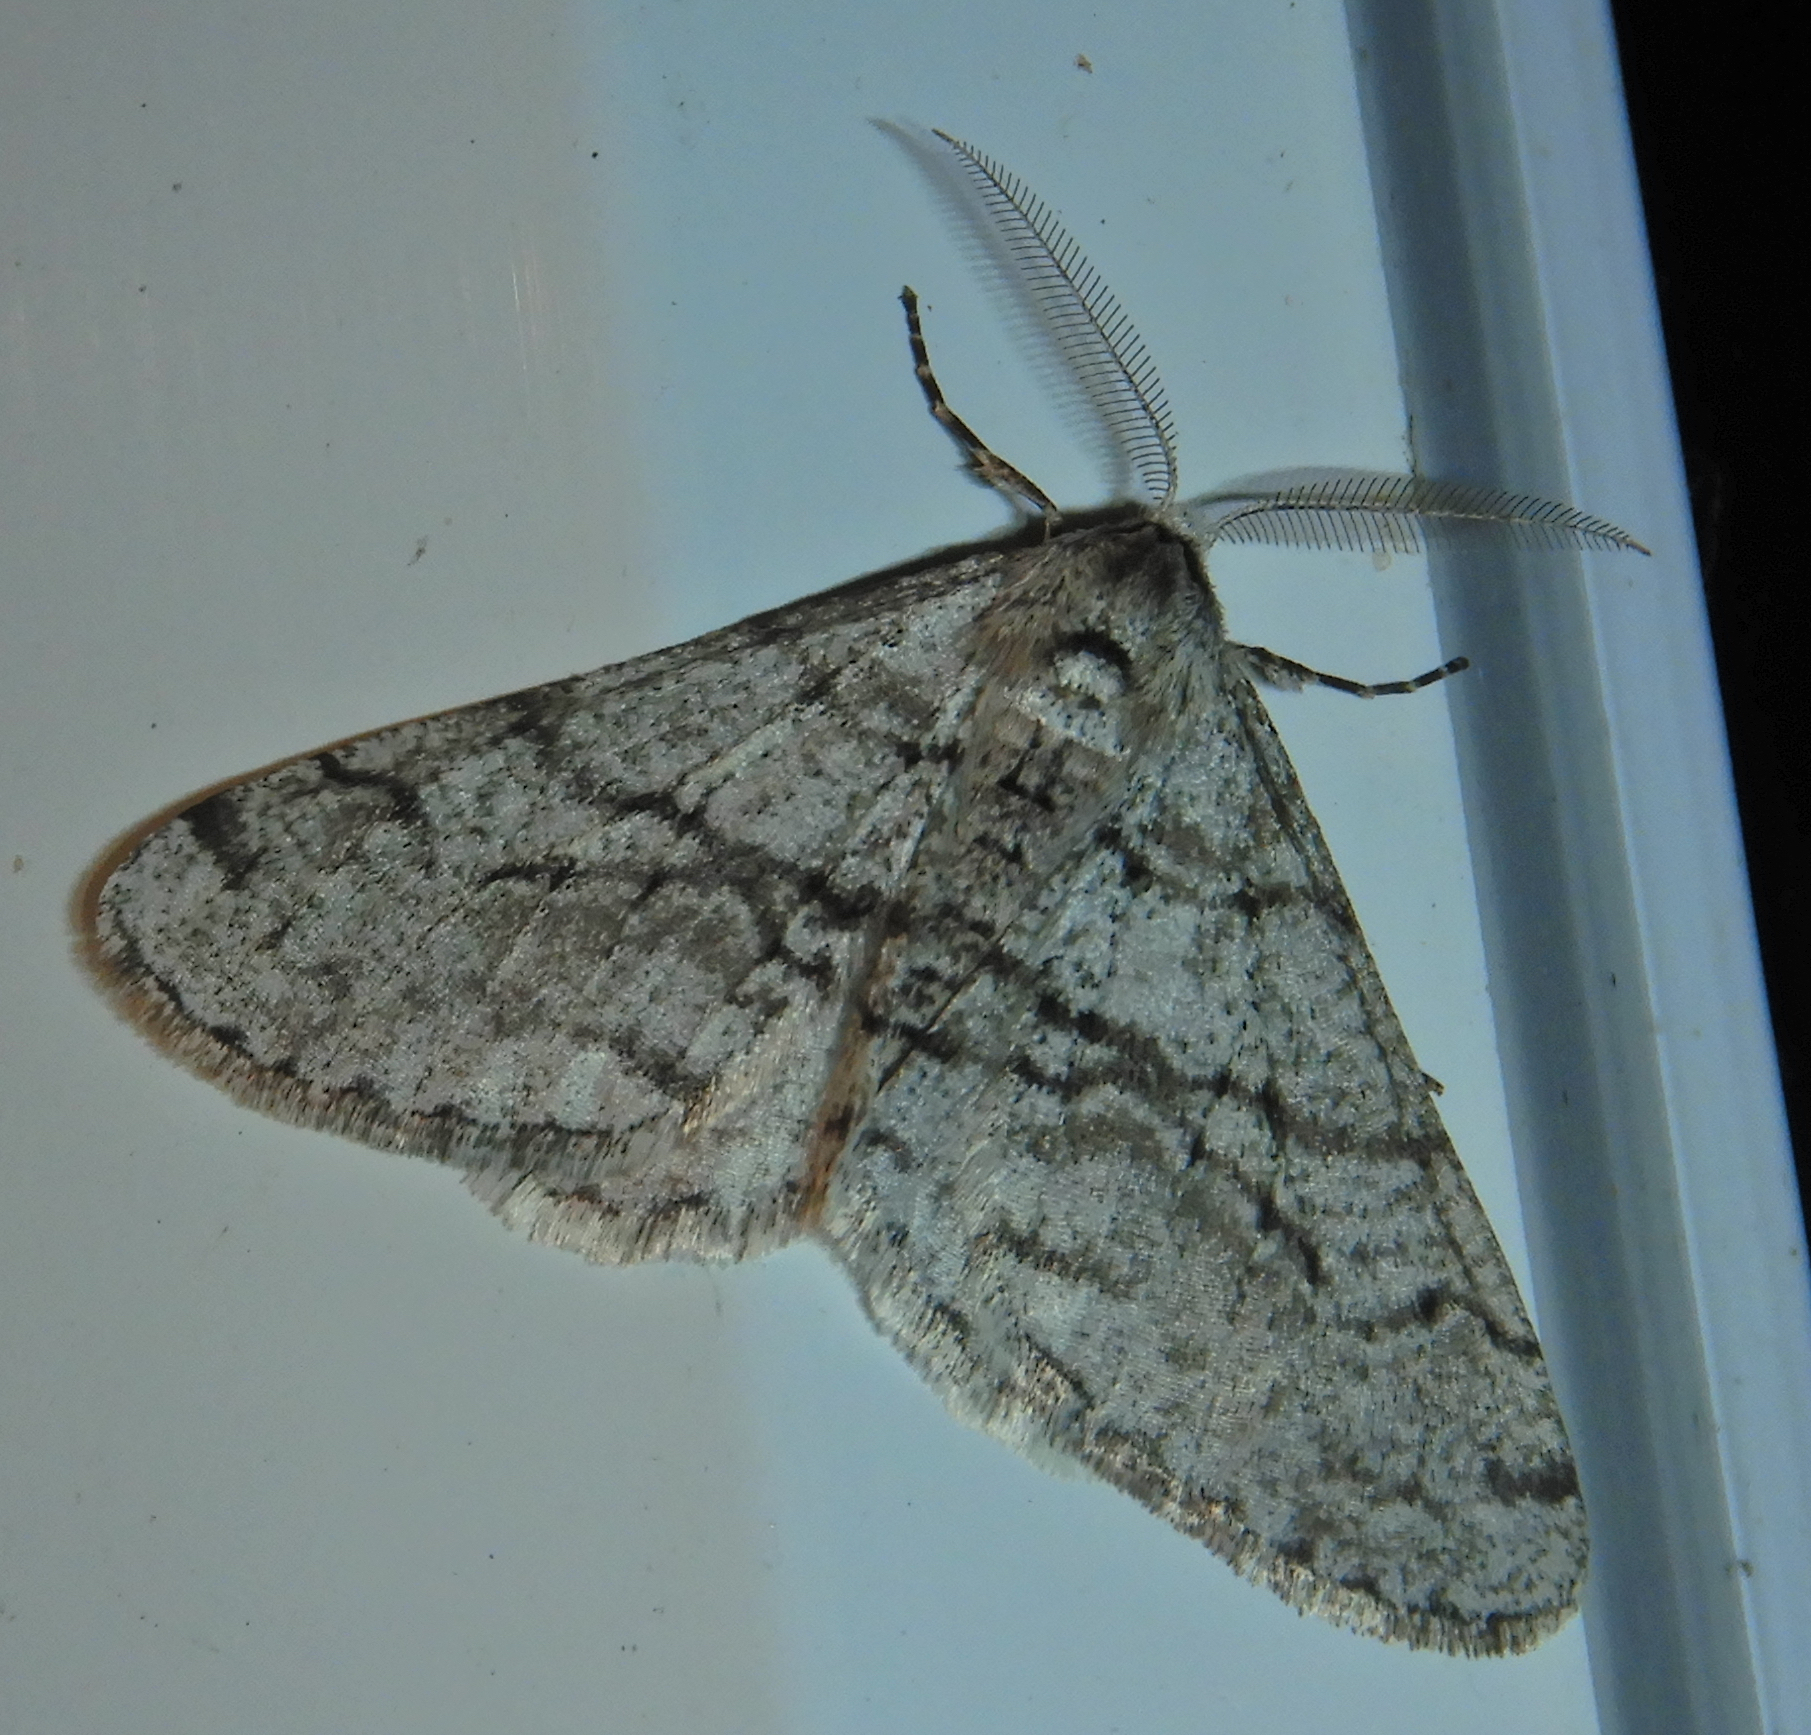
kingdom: Animalia
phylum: Arthropoda
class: Insecta
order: Lepidoptera
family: Geometridae
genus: Phigalia
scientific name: Phigalia titea
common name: Spiny looper
